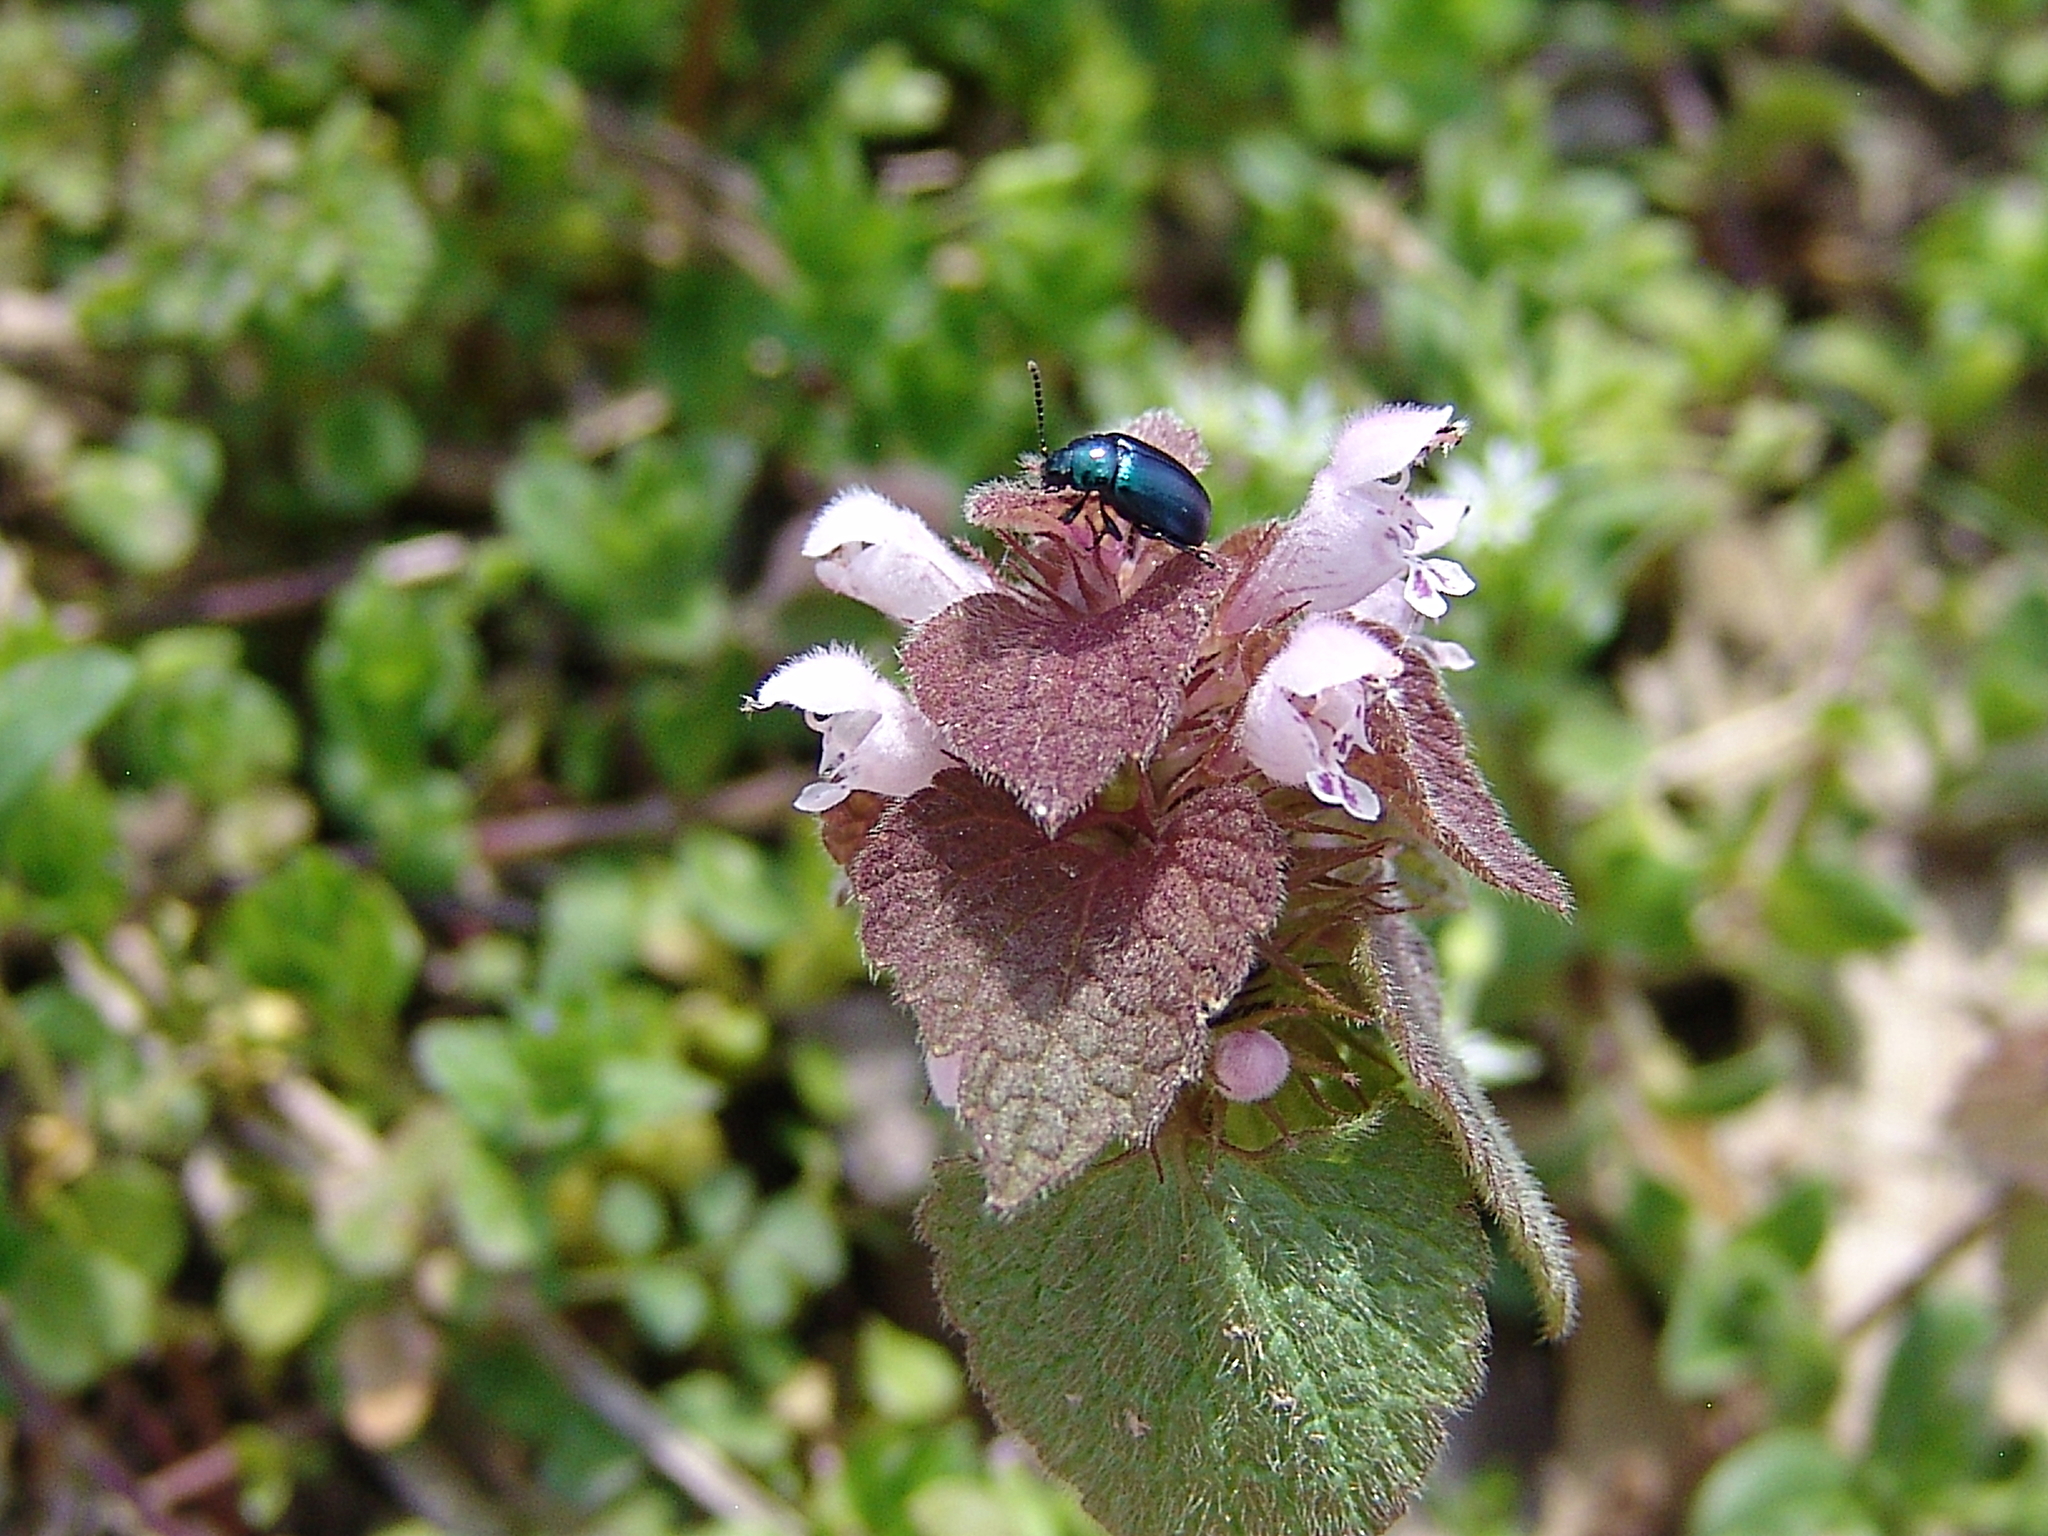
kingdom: Plantae
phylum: Tracheophyta
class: Magnoliopsida
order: Lamiales
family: Lamiaceae
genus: Lamium
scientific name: Lamium purpureum
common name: Red dead-nettle
